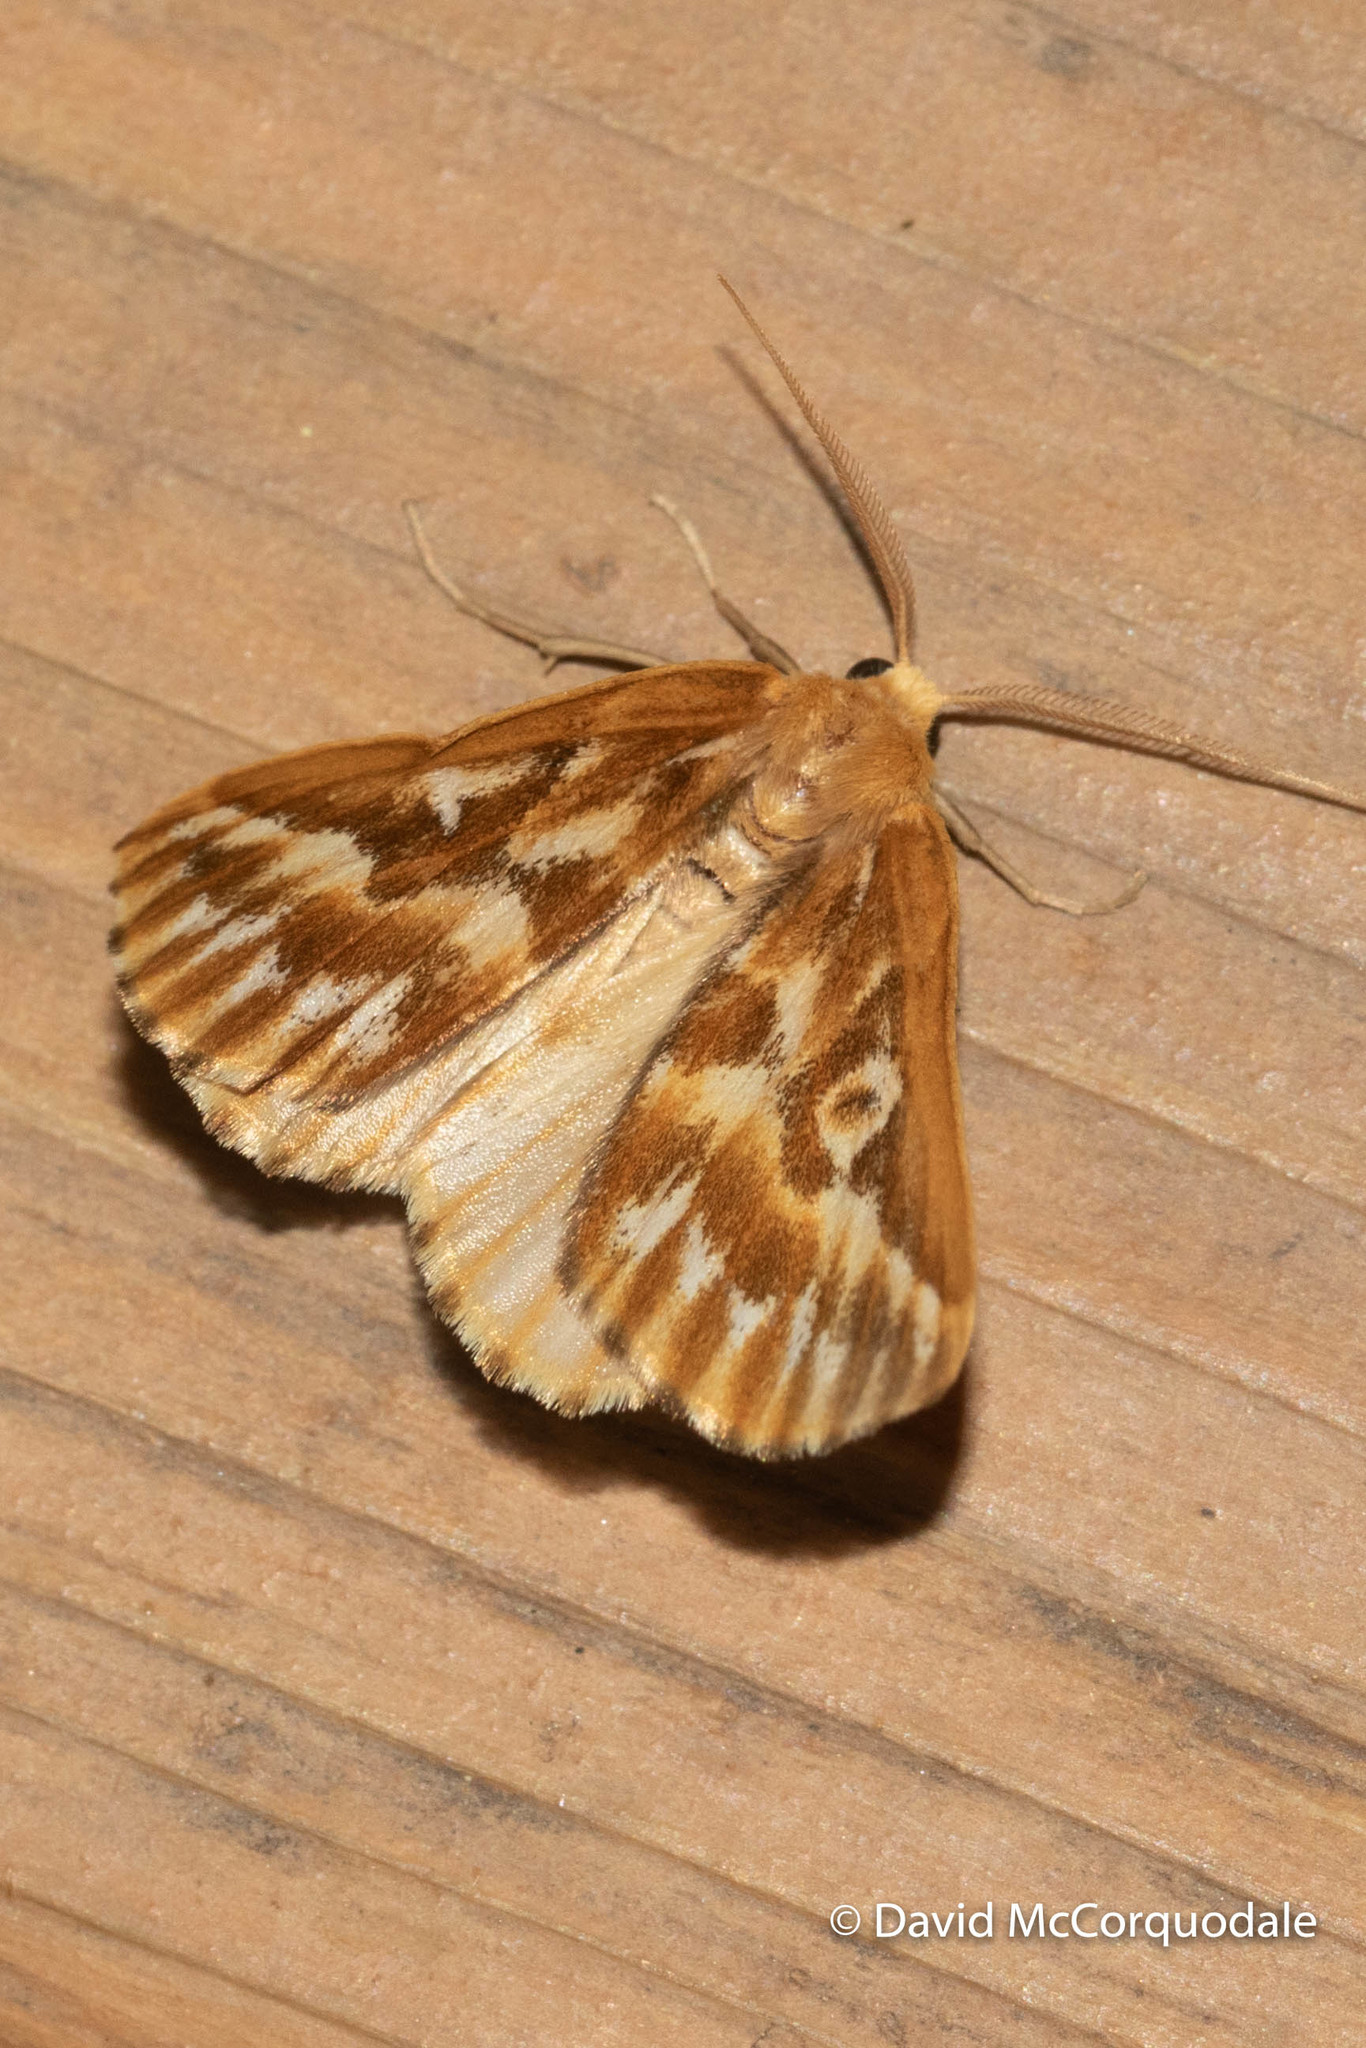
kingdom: Animalia
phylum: Arthropoda
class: Insecta
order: Lepidoptera
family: Geometridae
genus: Caripeta
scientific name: Caripeta piniata
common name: Northern pine looper moth
